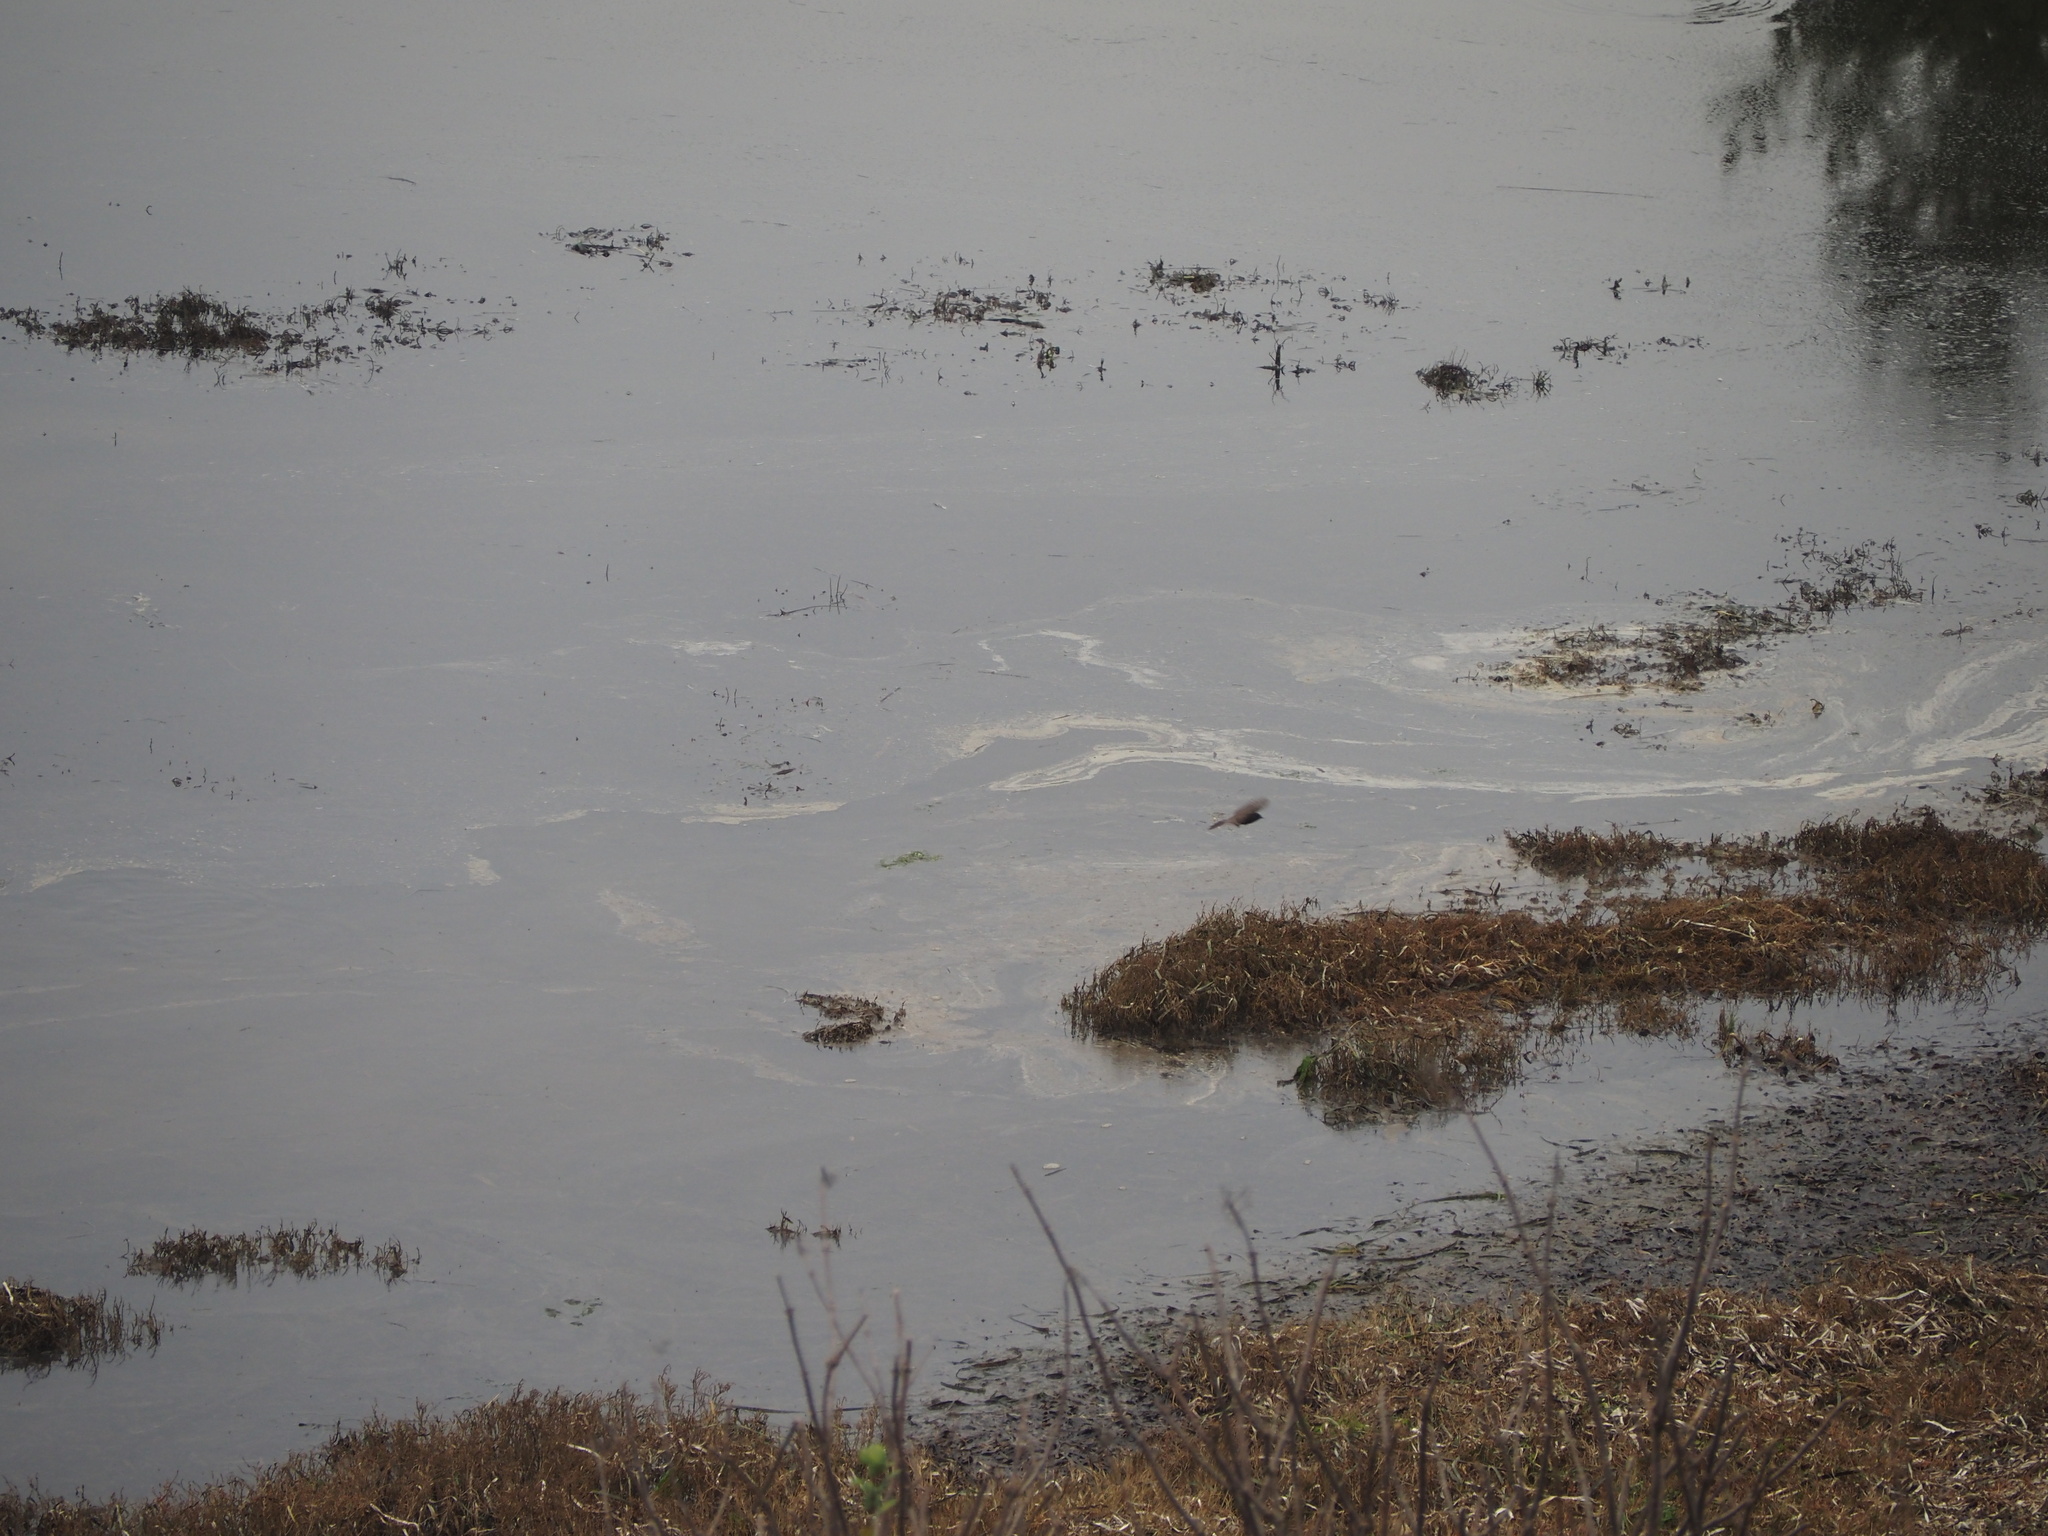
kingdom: Animalia
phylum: Chordata
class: Aves
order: Passeriformes
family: Tyrannidae
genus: Sayornis
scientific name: Sayornis nigricans
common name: Black phoebe
